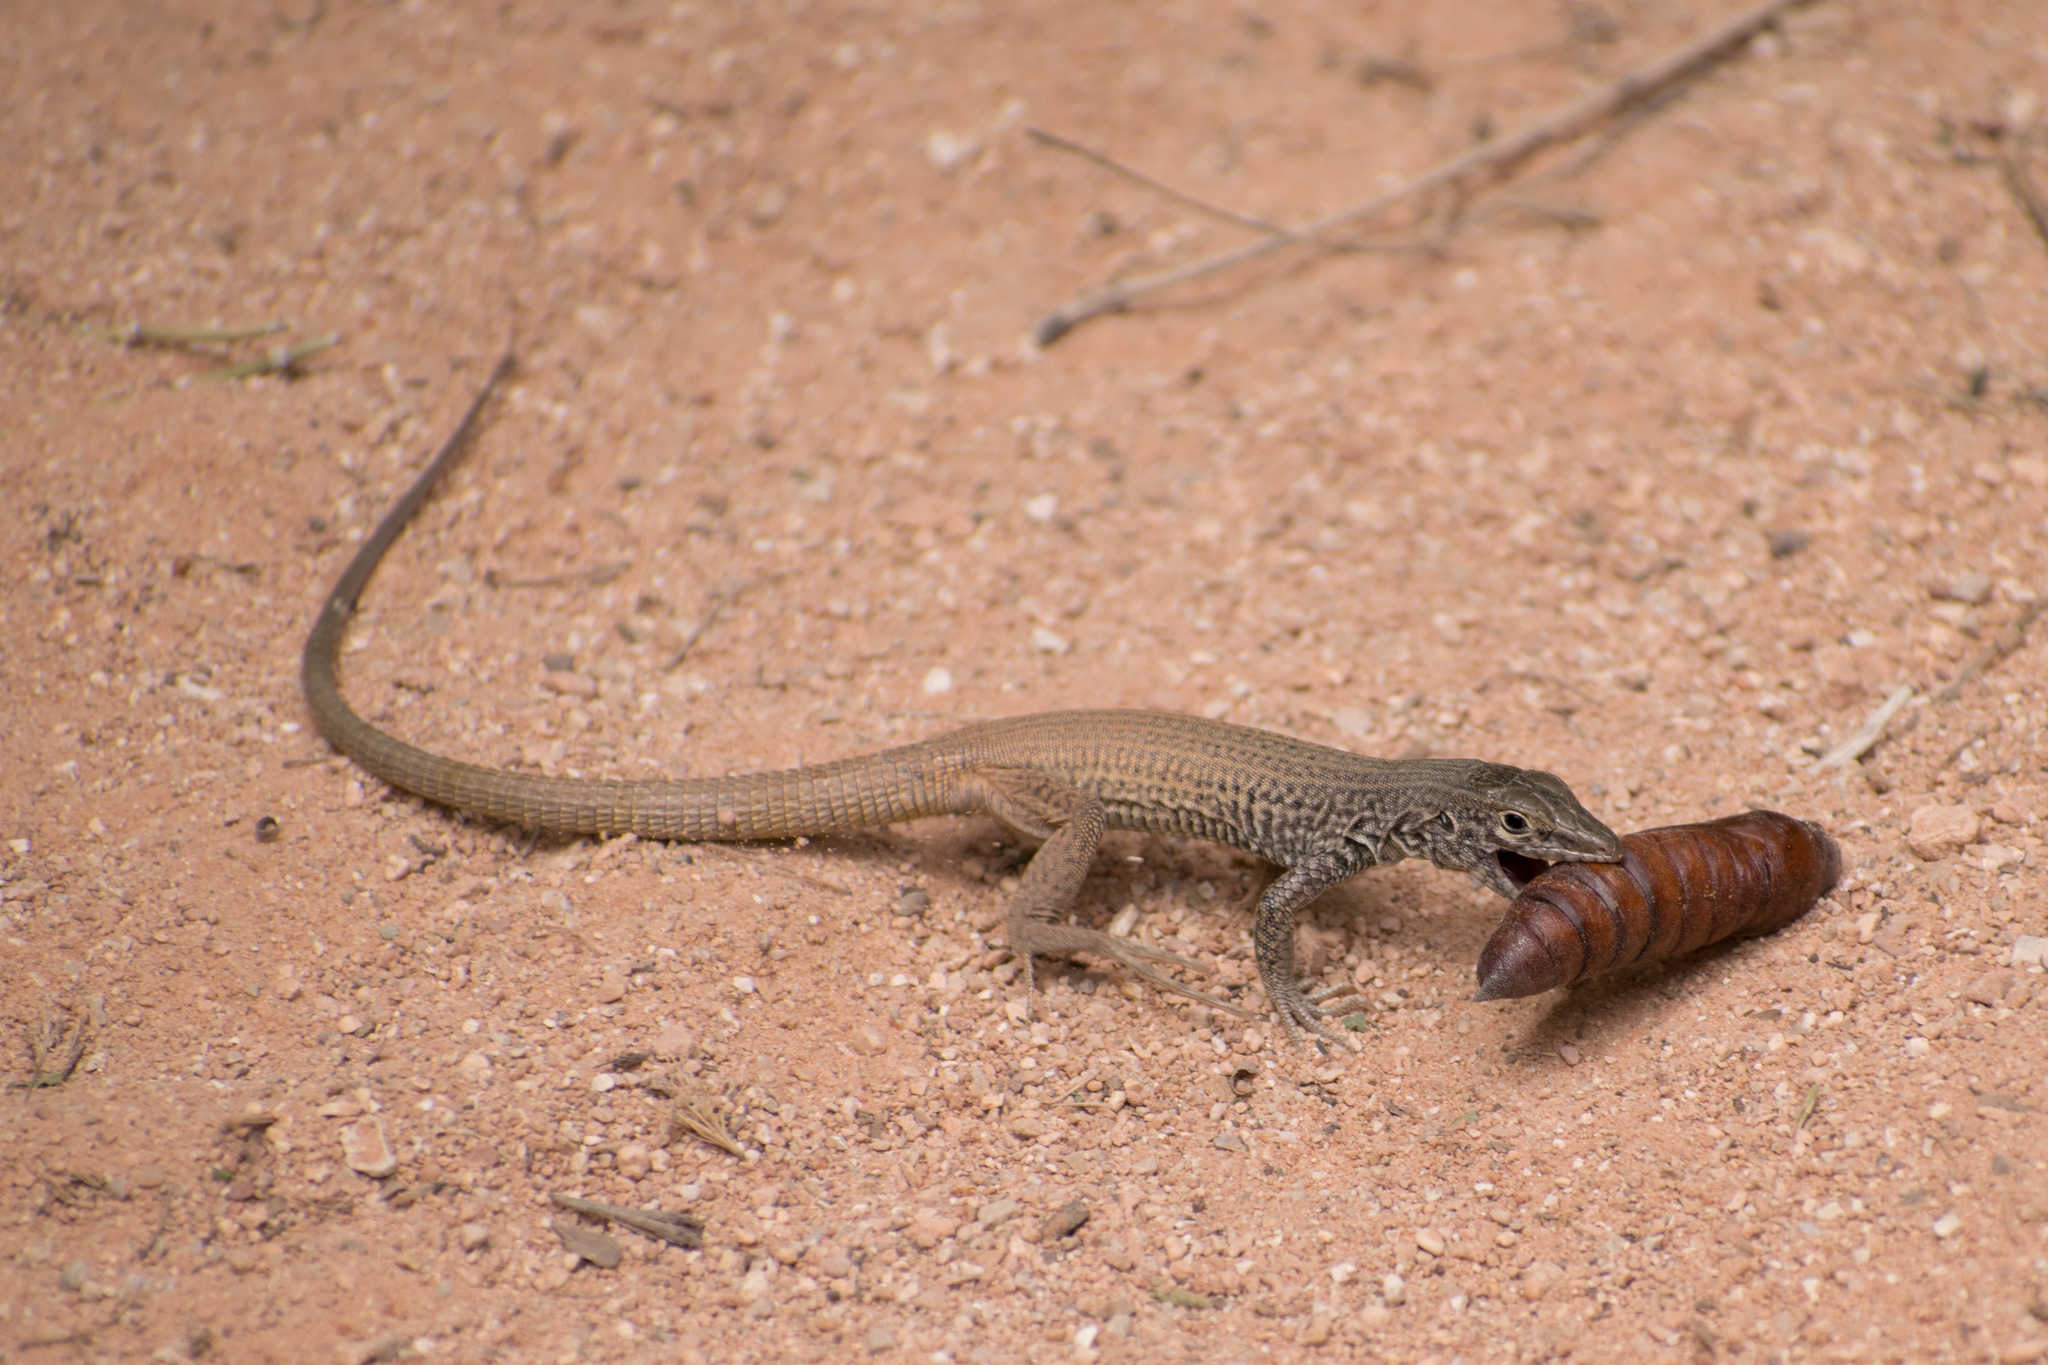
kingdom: Animalia
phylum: Chordata
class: Squamata
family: Teiidae
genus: Aspidoscelis
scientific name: Aspidoscelis tigris
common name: Tiger whiptail
